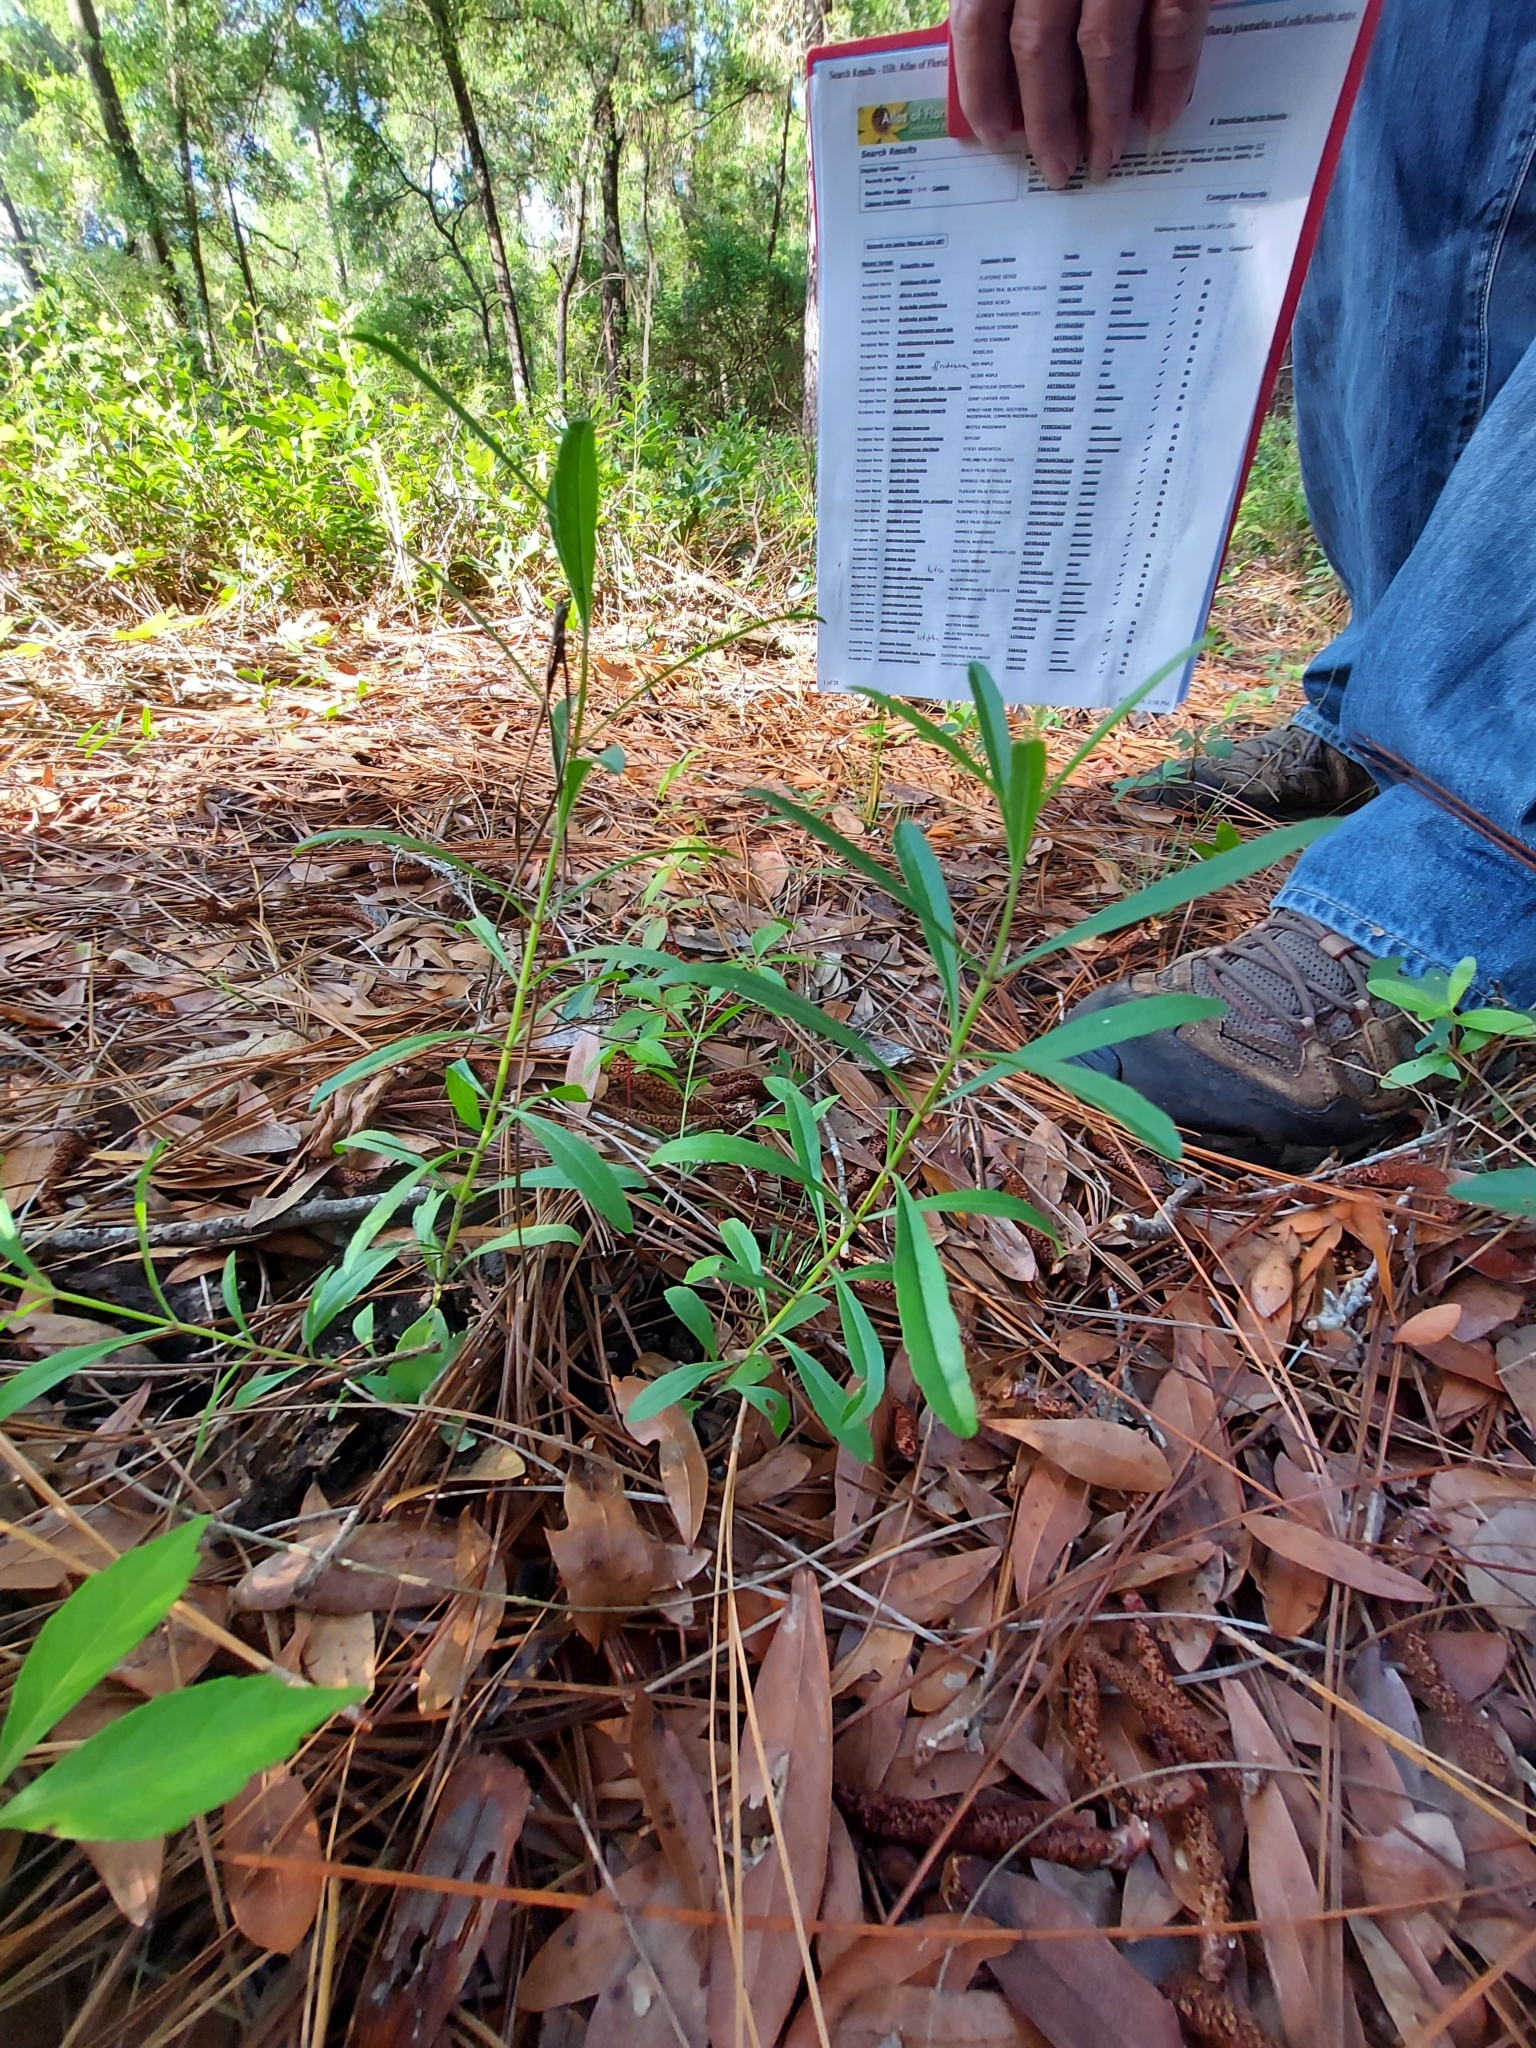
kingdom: Plantae
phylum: Tracheophyta
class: Magnoliopsida
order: Lamiales
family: Lamiaceae
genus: Salvia
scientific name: Salvia azurea
